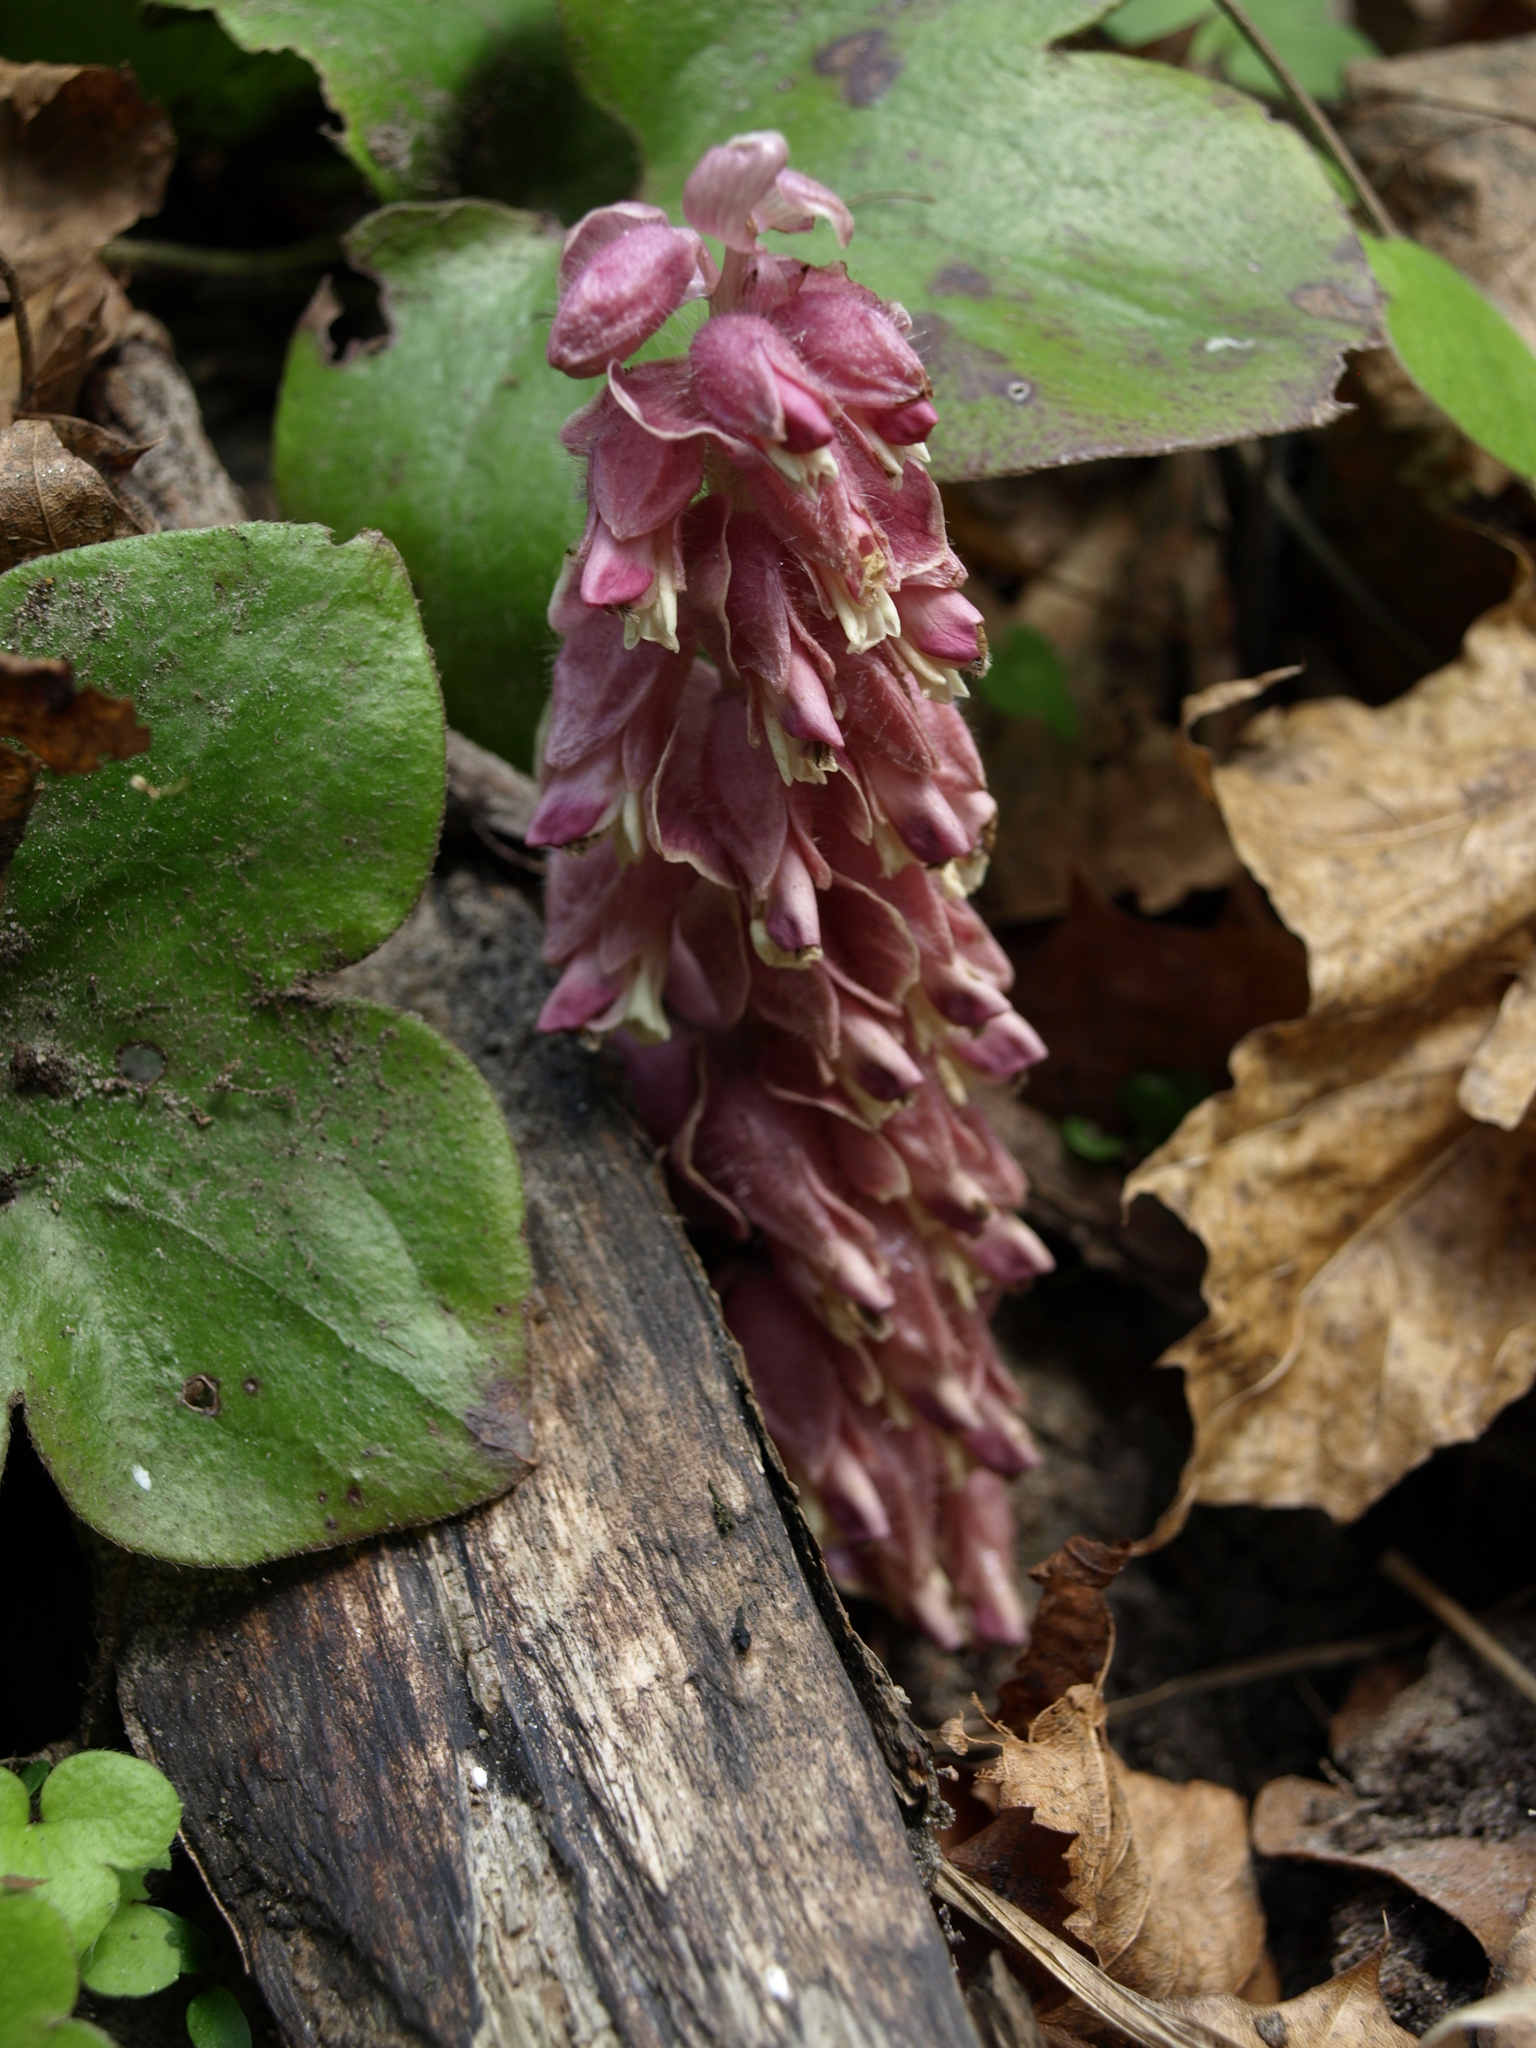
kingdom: Plantae
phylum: Tracheophyta
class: Magnoliopsida
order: Lamiales
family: Orobanchaceae
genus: Lathraea
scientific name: Lathraea squamaria
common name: Toothwort
